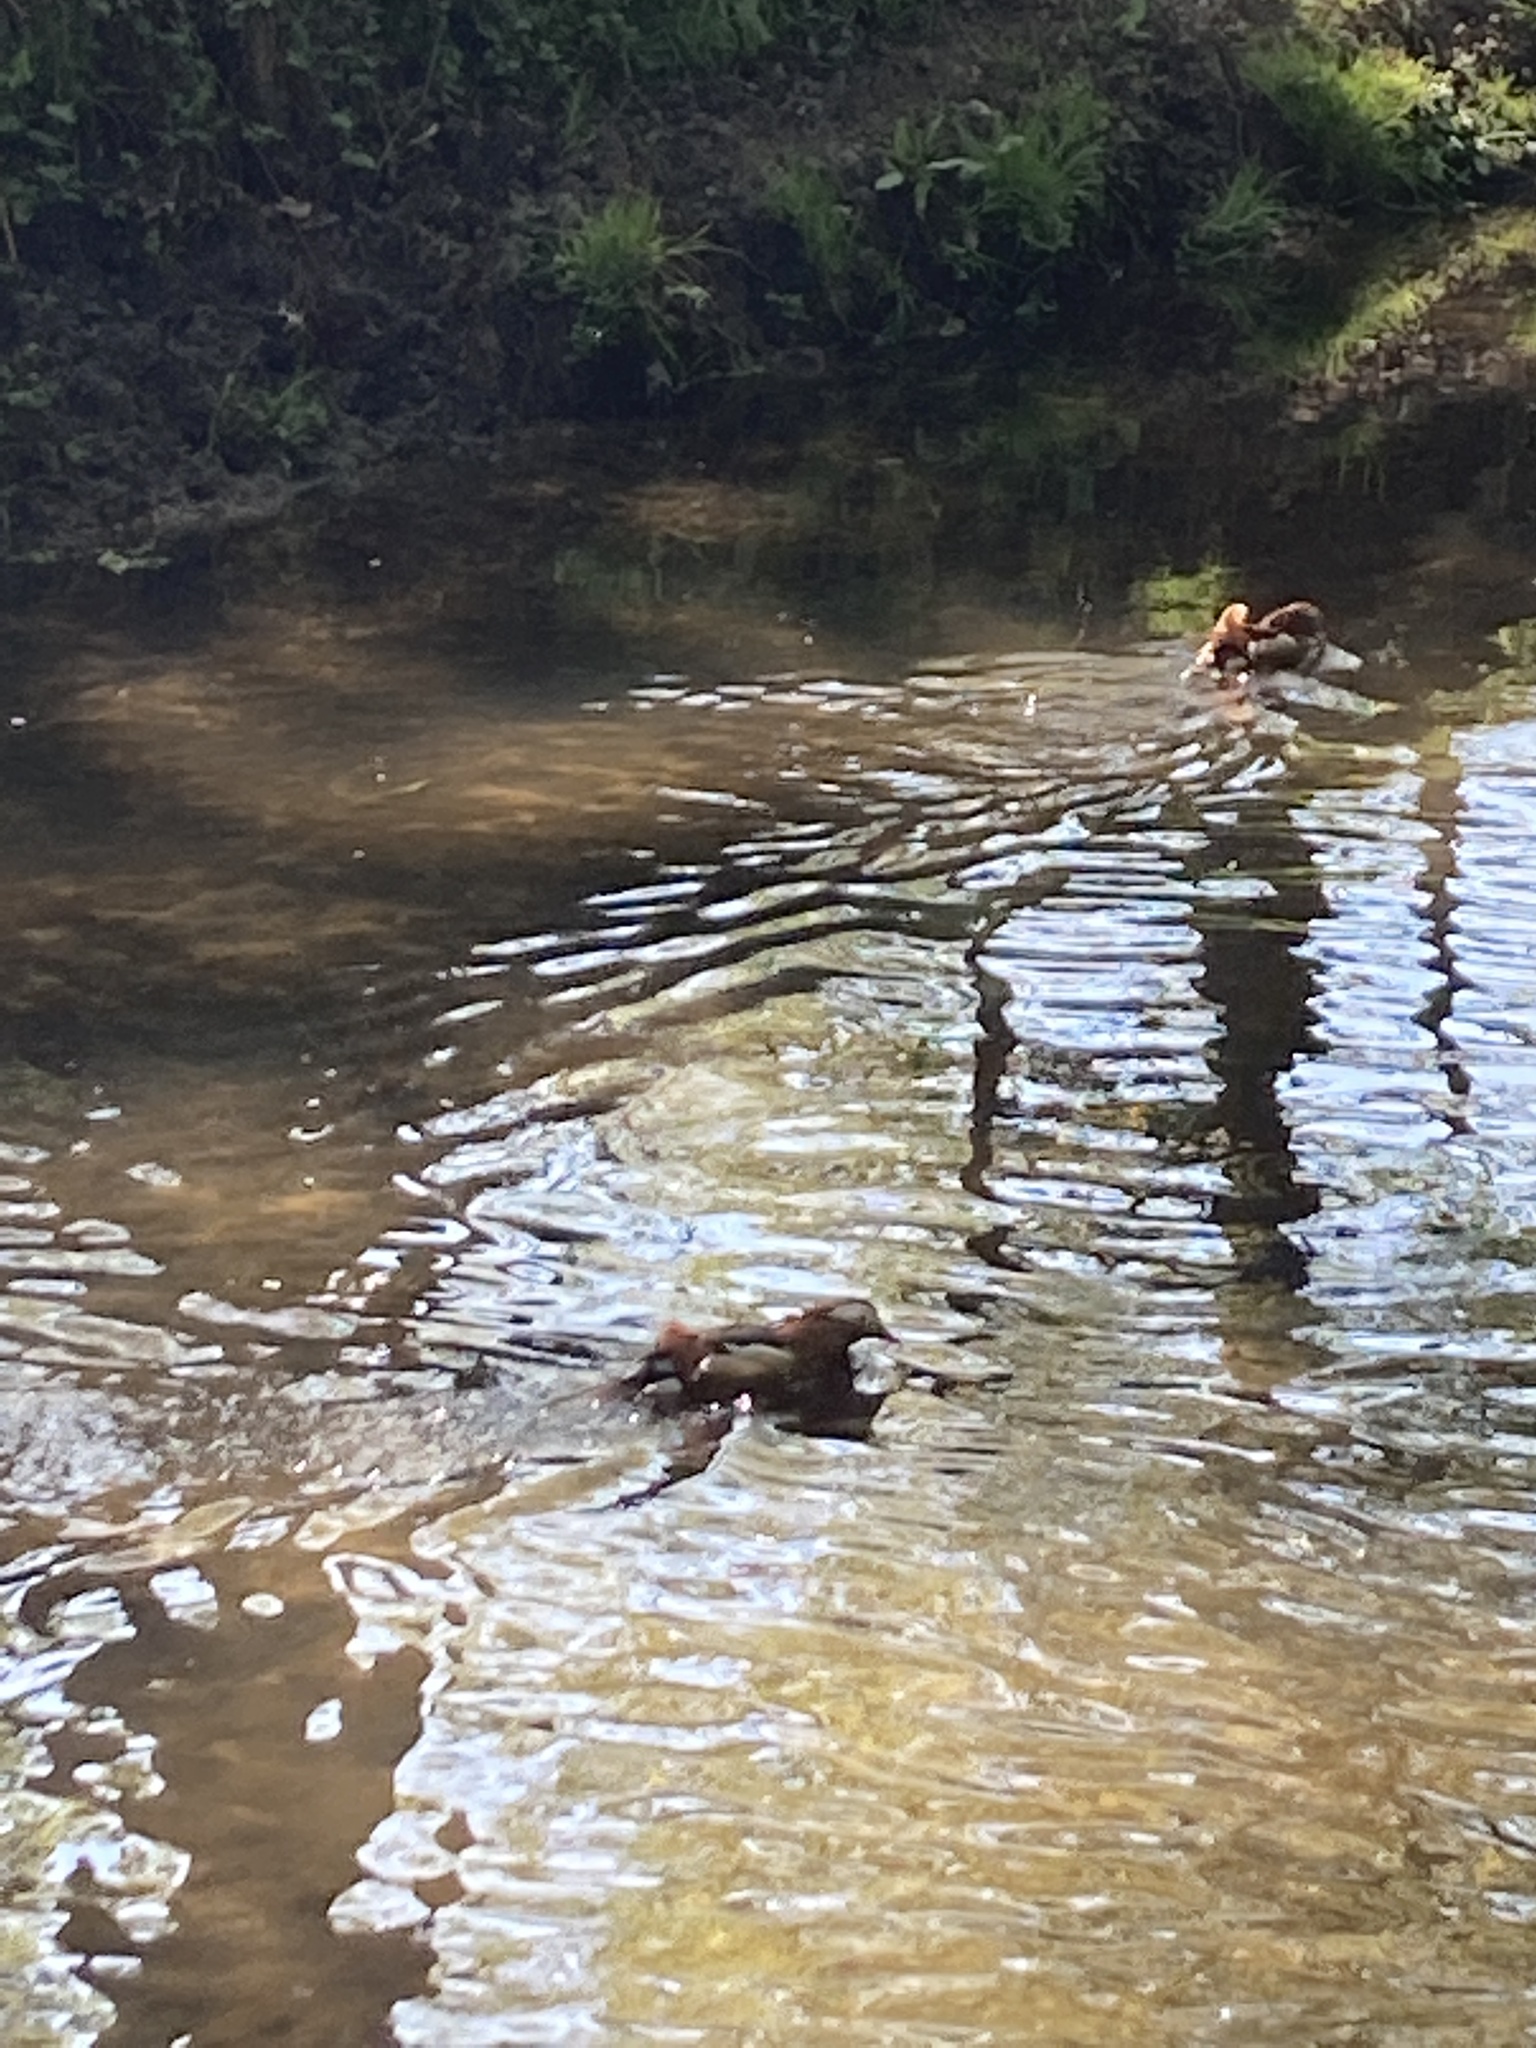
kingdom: Animalia
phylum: Chordata
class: Aves
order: Anseriformes
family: Anatidae
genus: Aix
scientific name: Aix galericulata
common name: Mandarin duck
